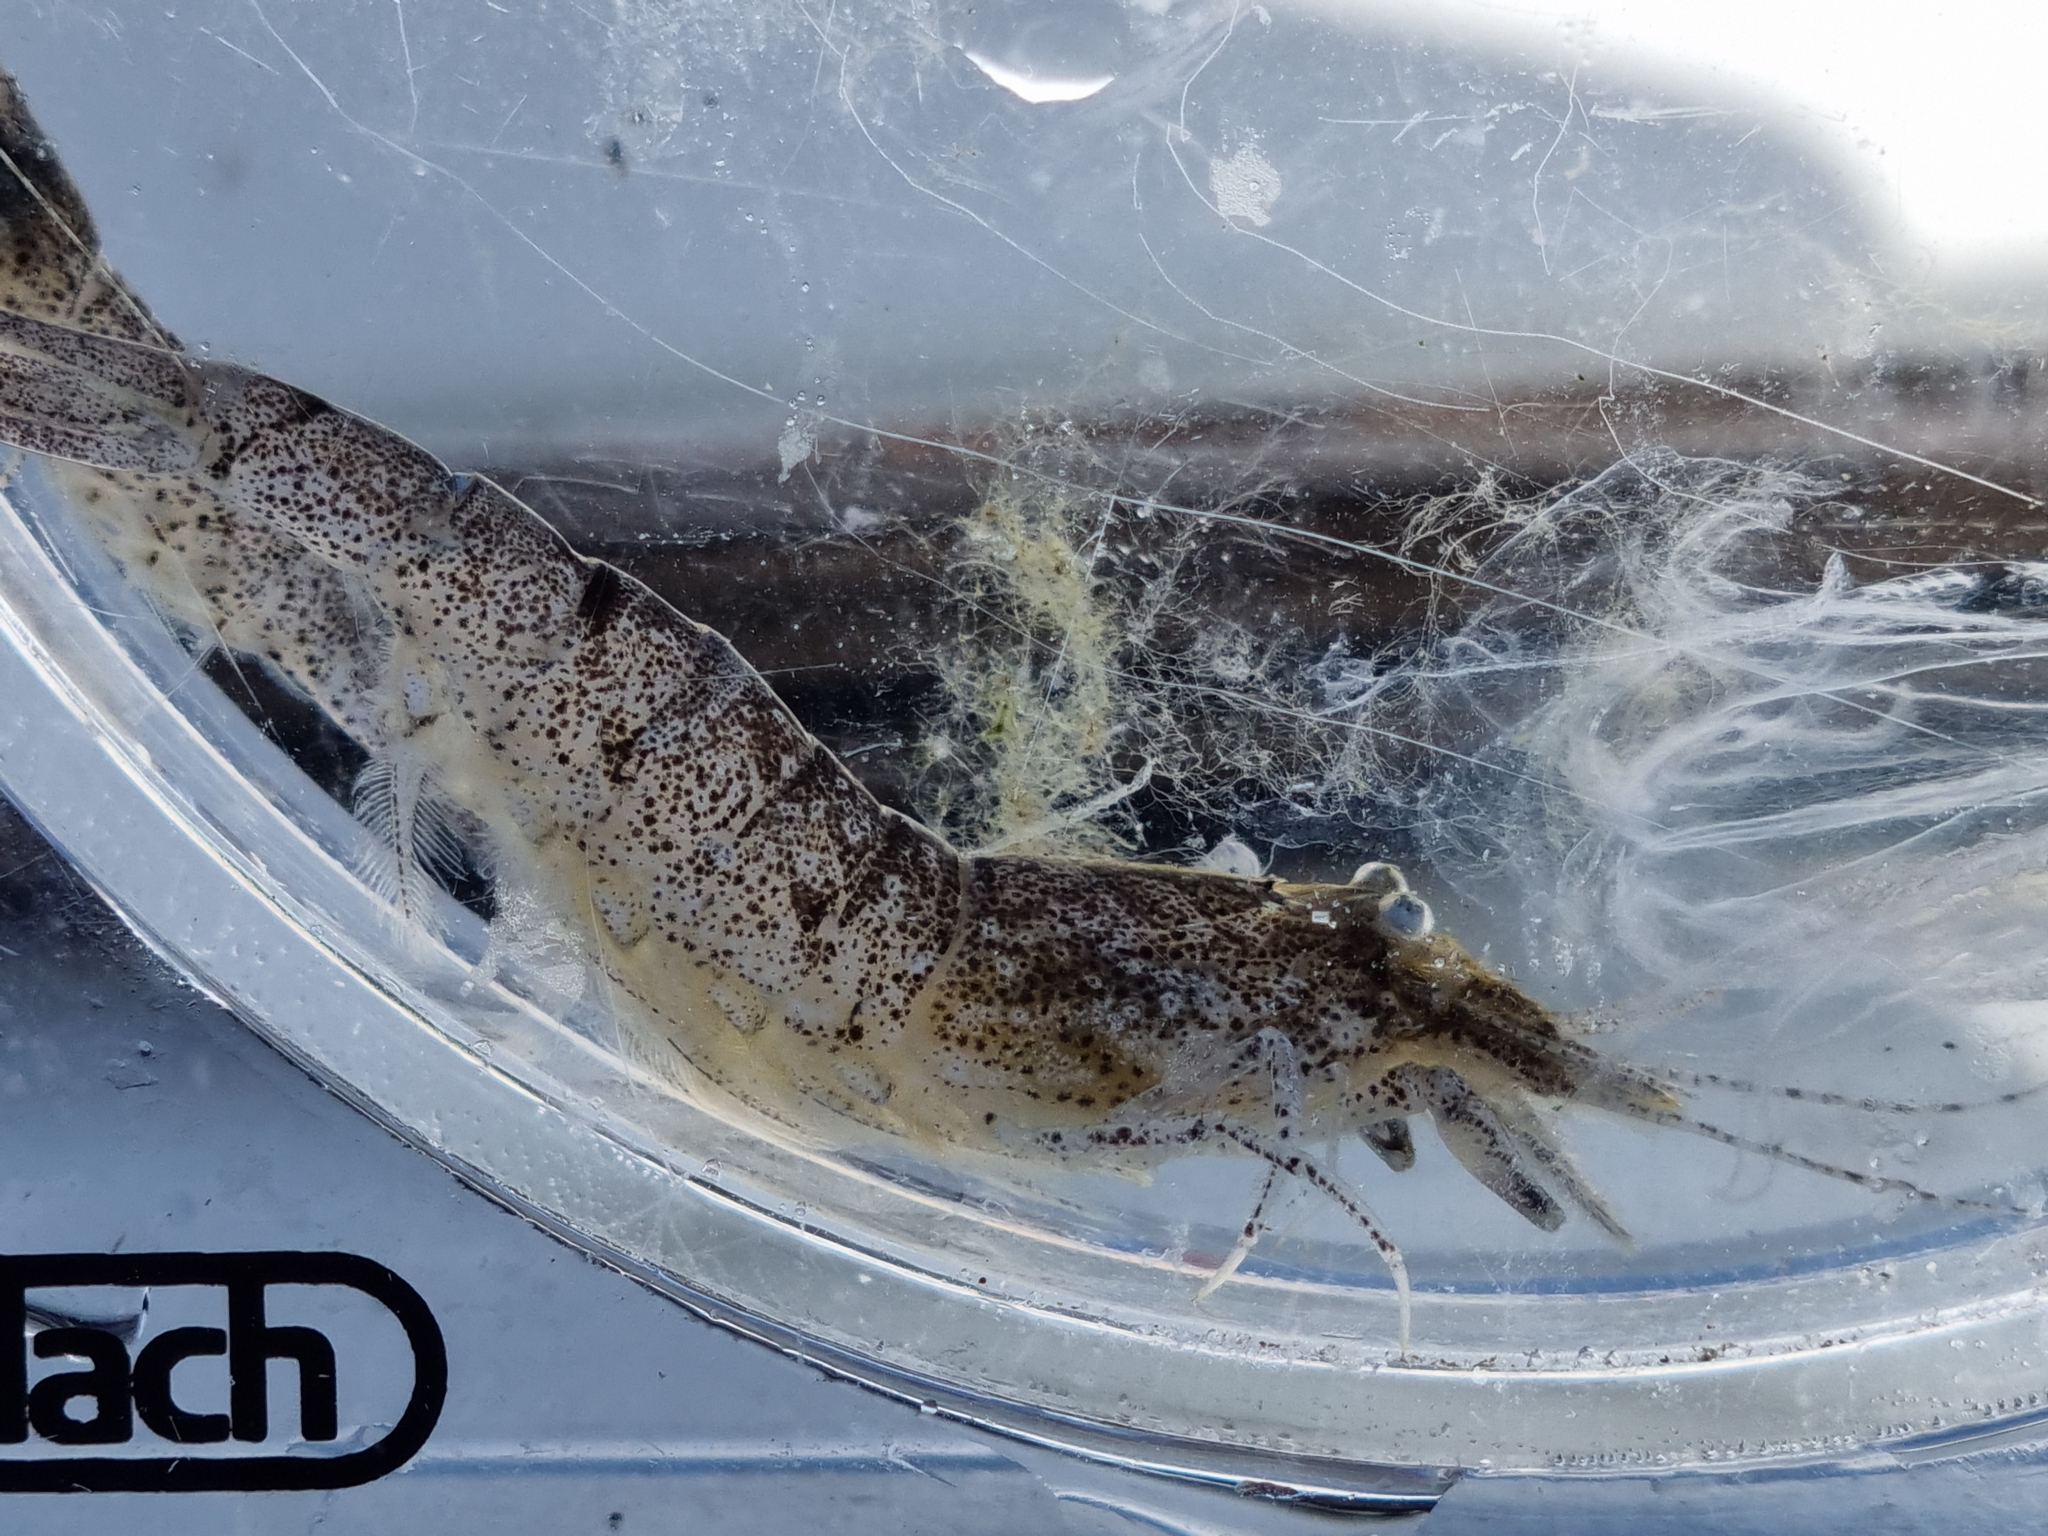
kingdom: Animalia
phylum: Arthropoda
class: Malacostraca
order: Decapoda
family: Crangonidae
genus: Crangon
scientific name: Crangon crangon
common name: Brown shrimp
